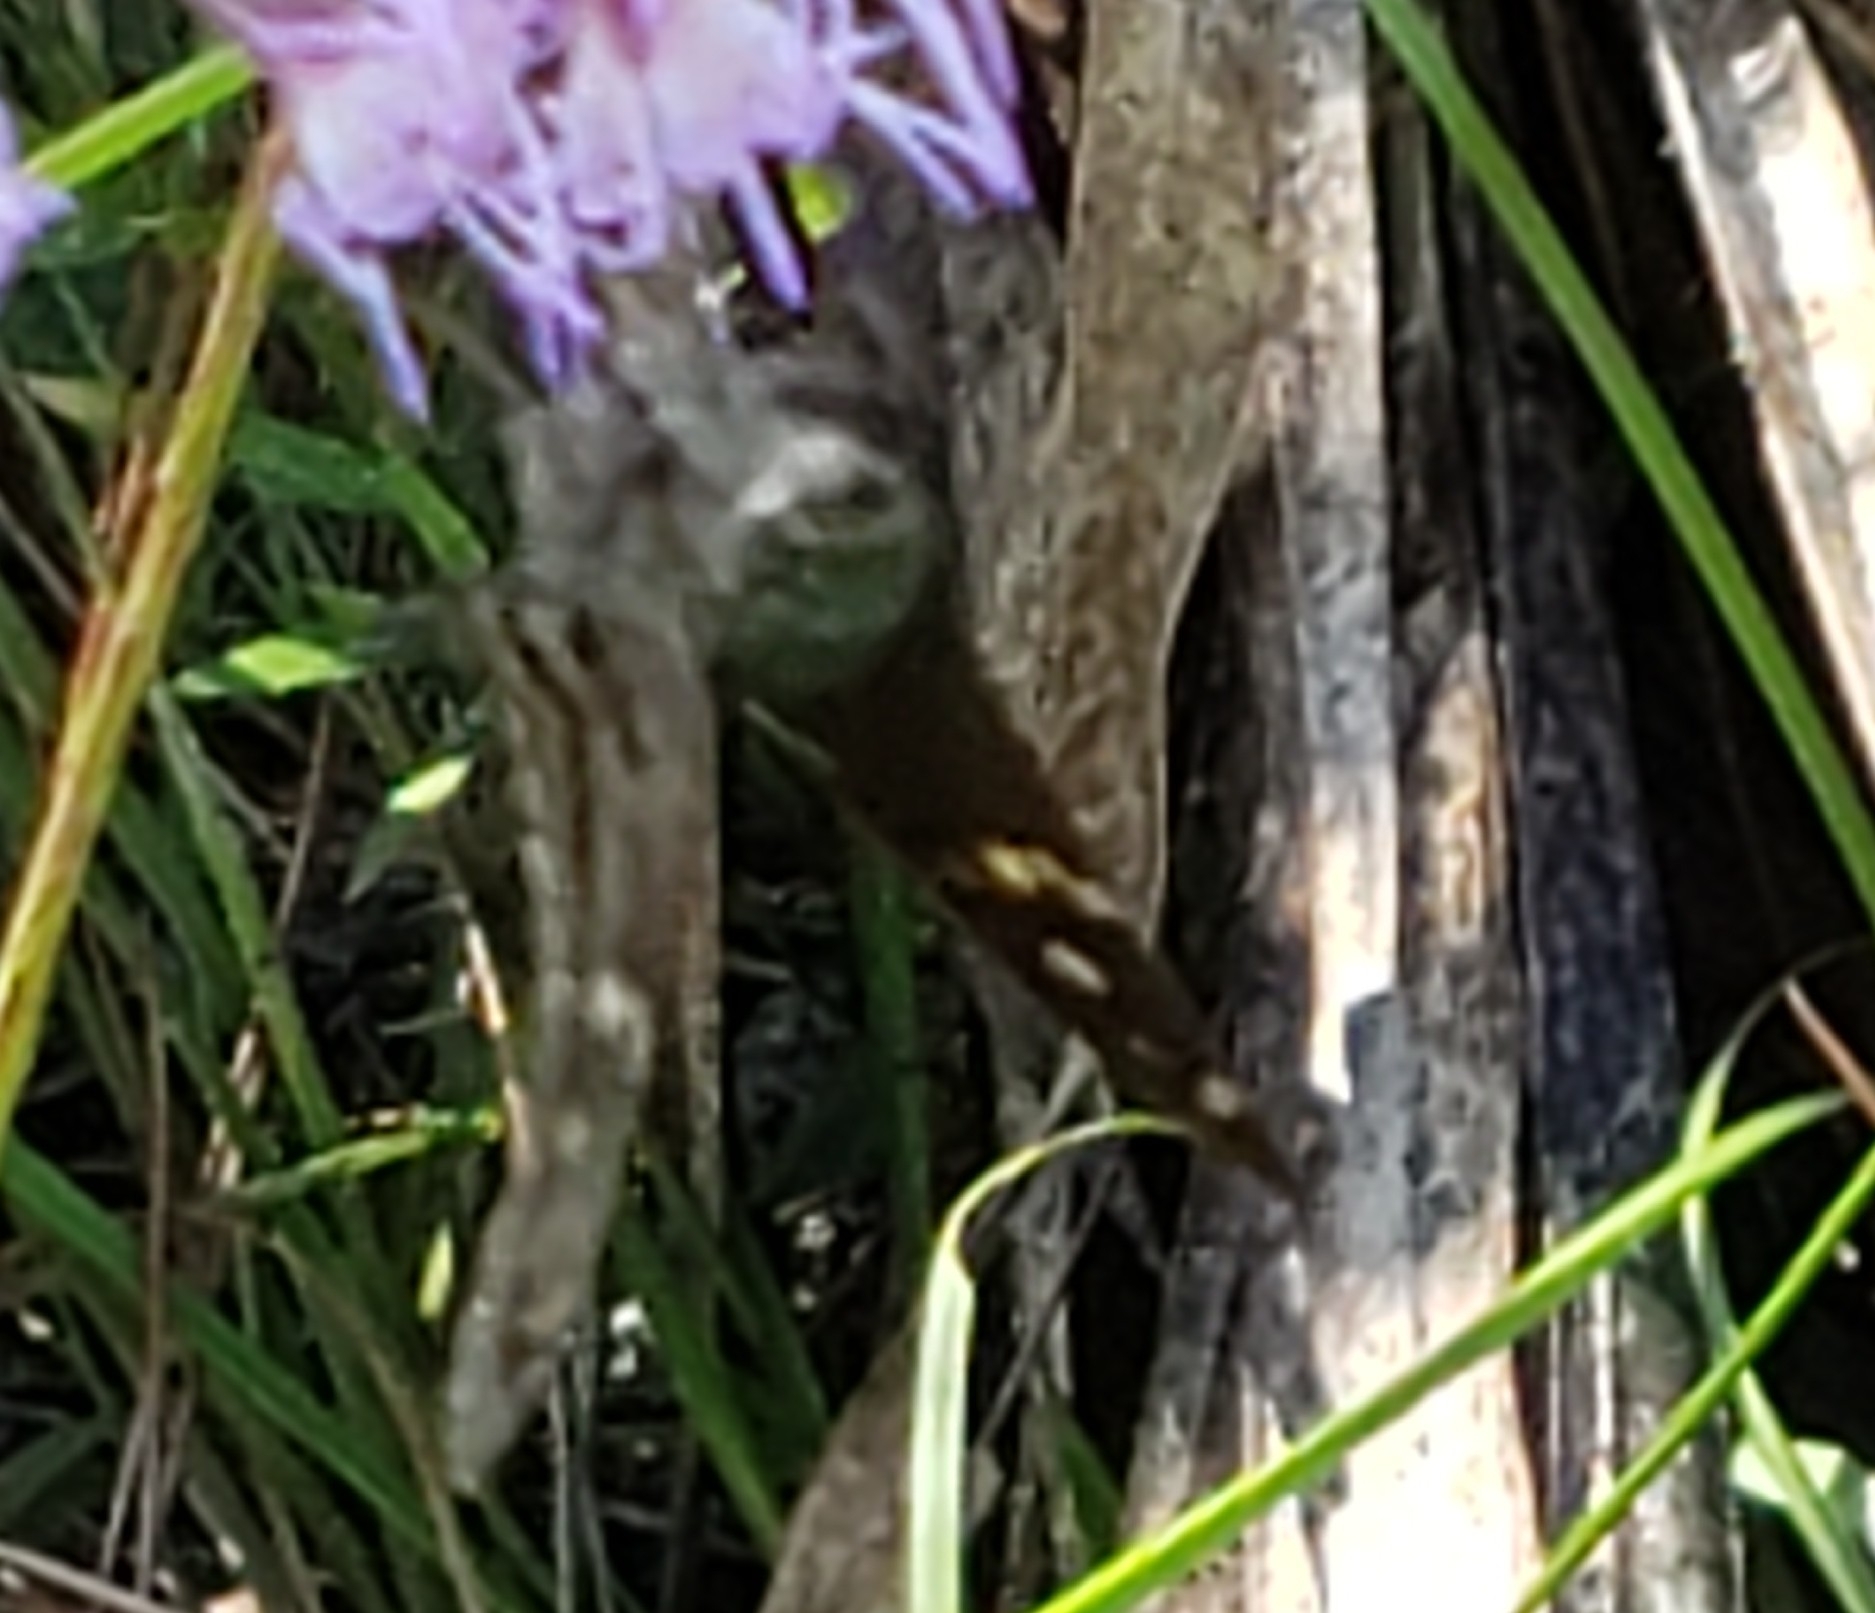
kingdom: Animalia
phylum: Arthropoda
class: Insecta
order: Lepidoptera
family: Hesperiidae
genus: Urbanus
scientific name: Urbanus proteus
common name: Long-tailed skipper
